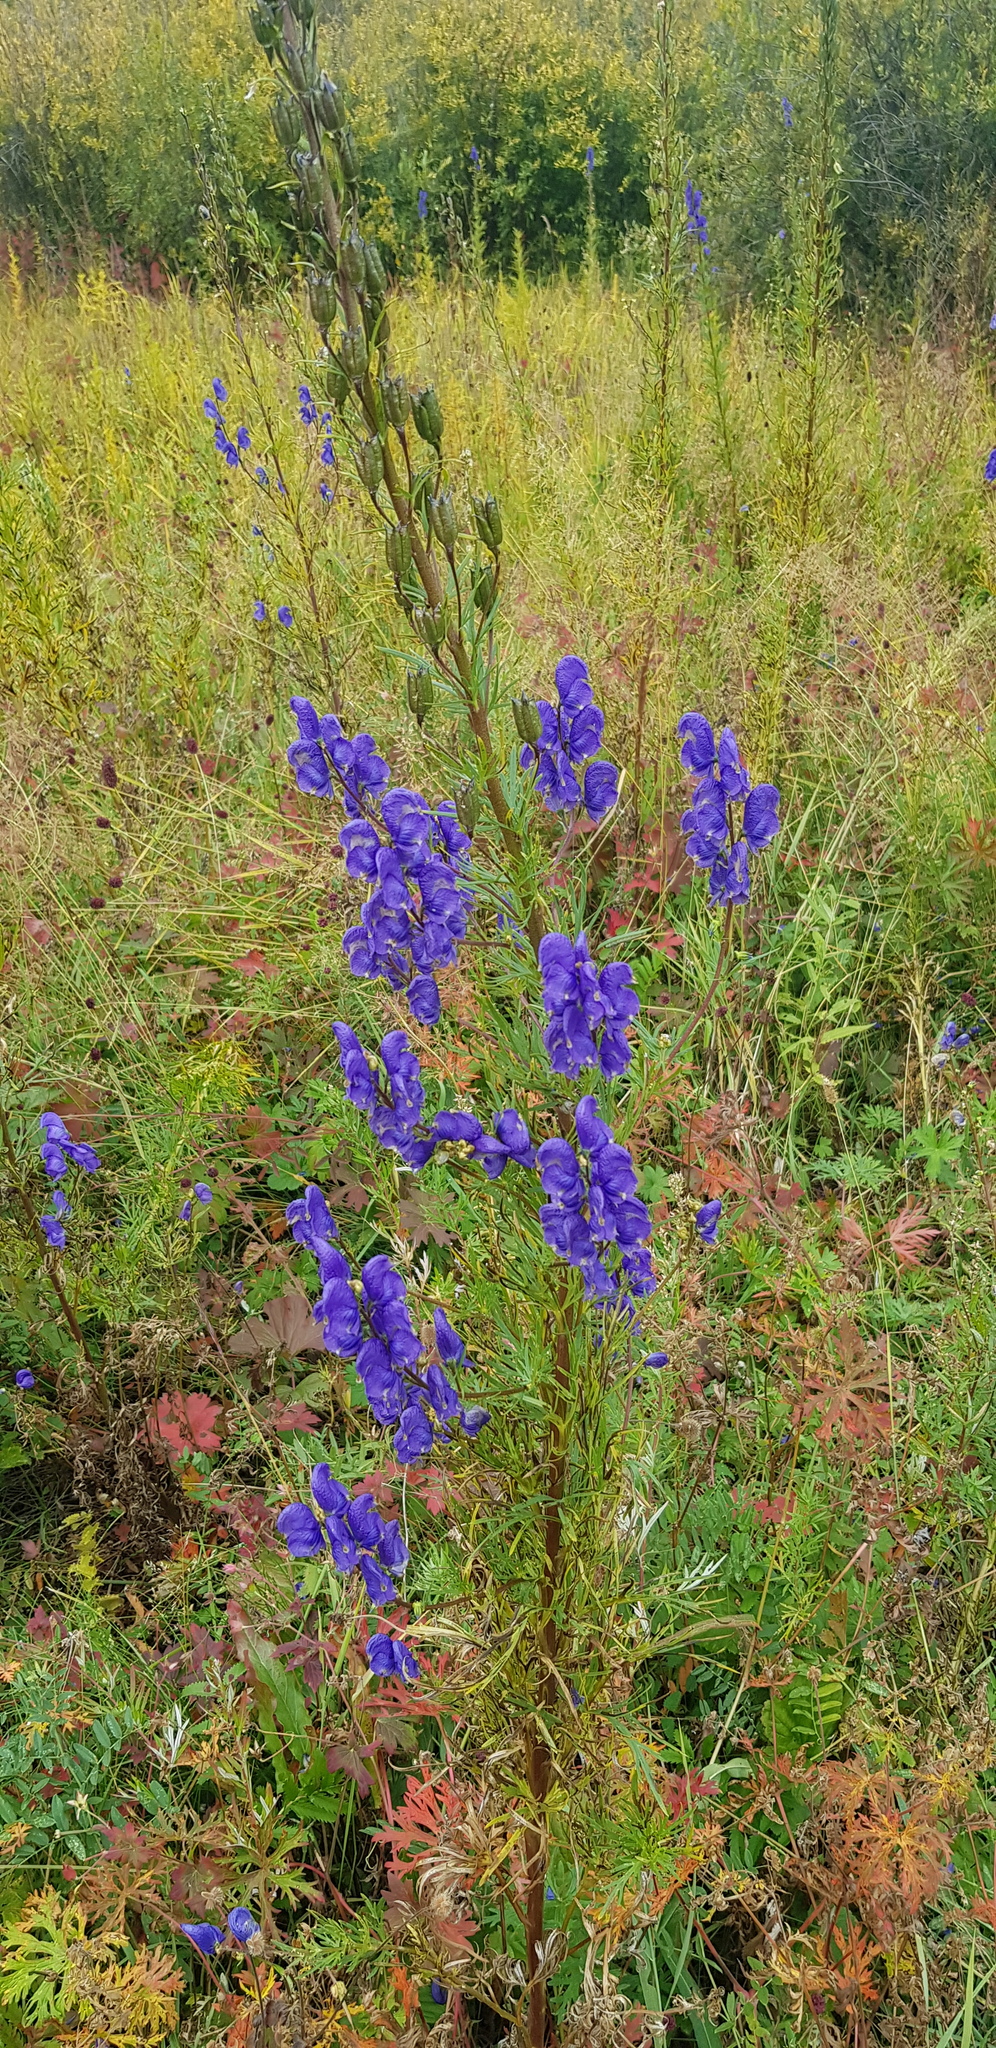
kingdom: Plantae
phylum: Tracheophyta
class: Magnoliopsida
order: Ranunculales
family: Ranunculaceae
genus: Aconitum
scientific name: Aconitum baicalense
